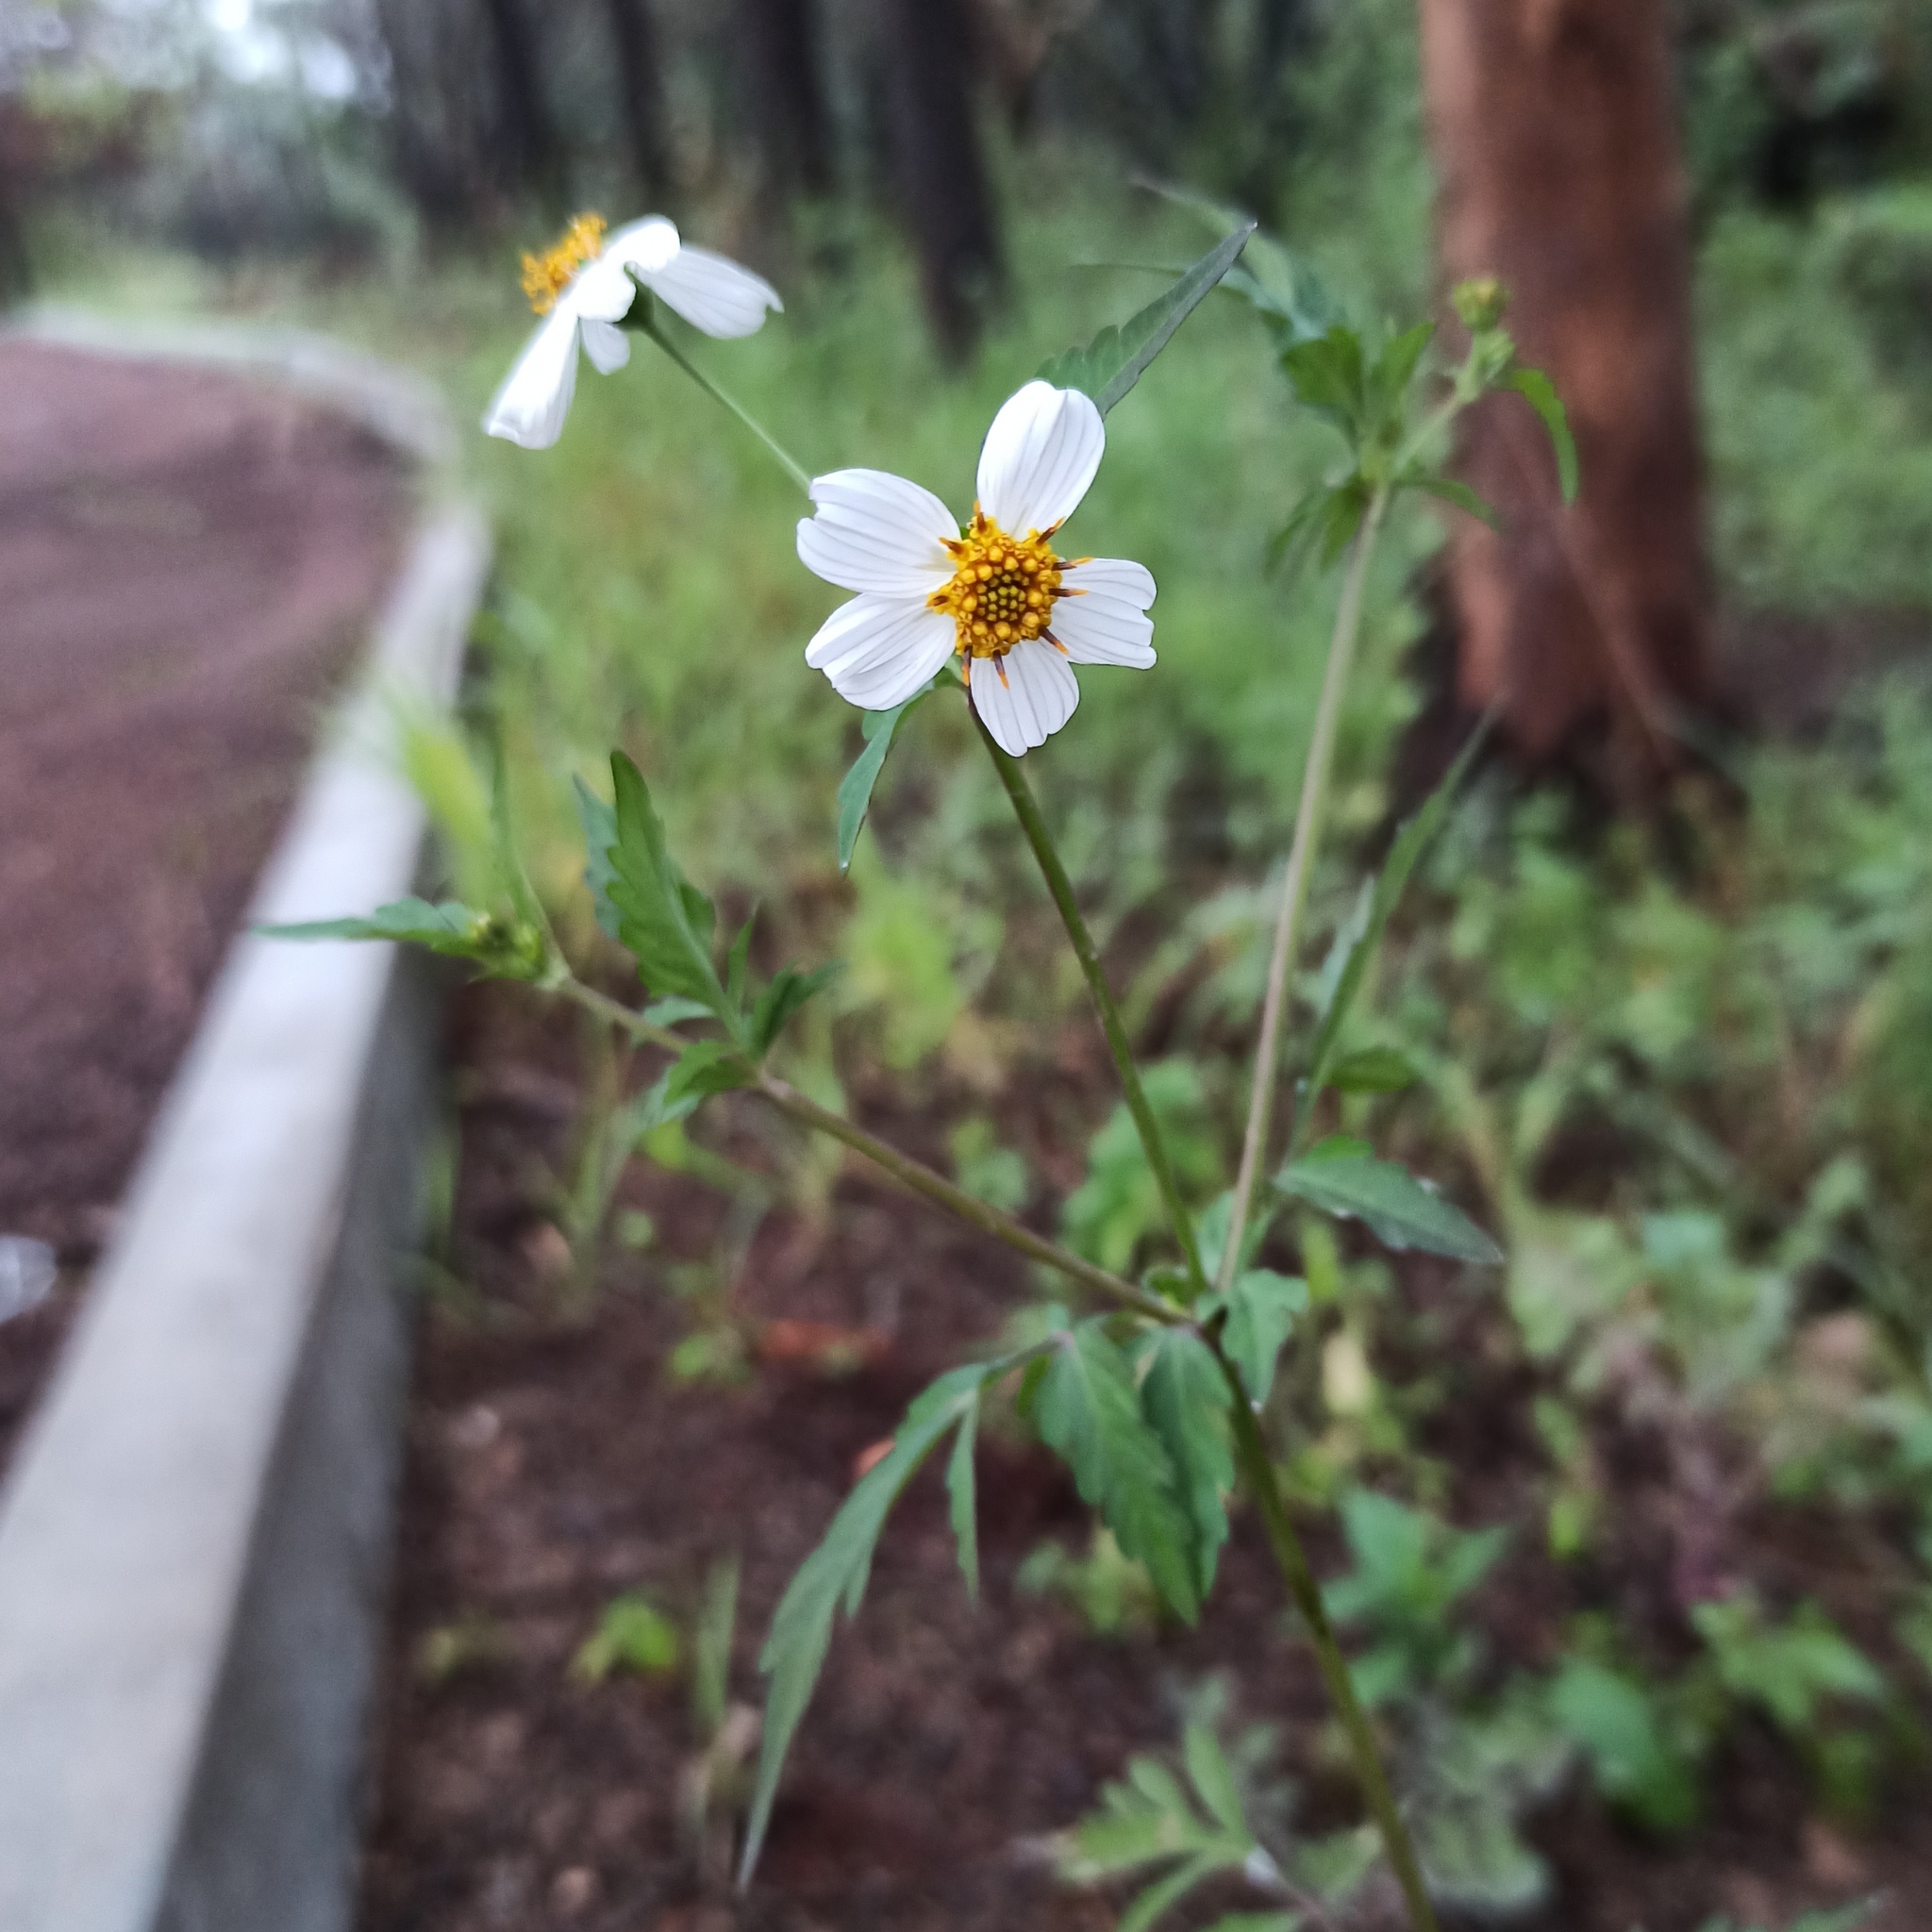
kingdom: Plantae
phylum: Tracheophyta
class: Magnoliopsida
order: Asterales
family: Asteraceae
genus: Bidens
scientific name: Bidens odorata
